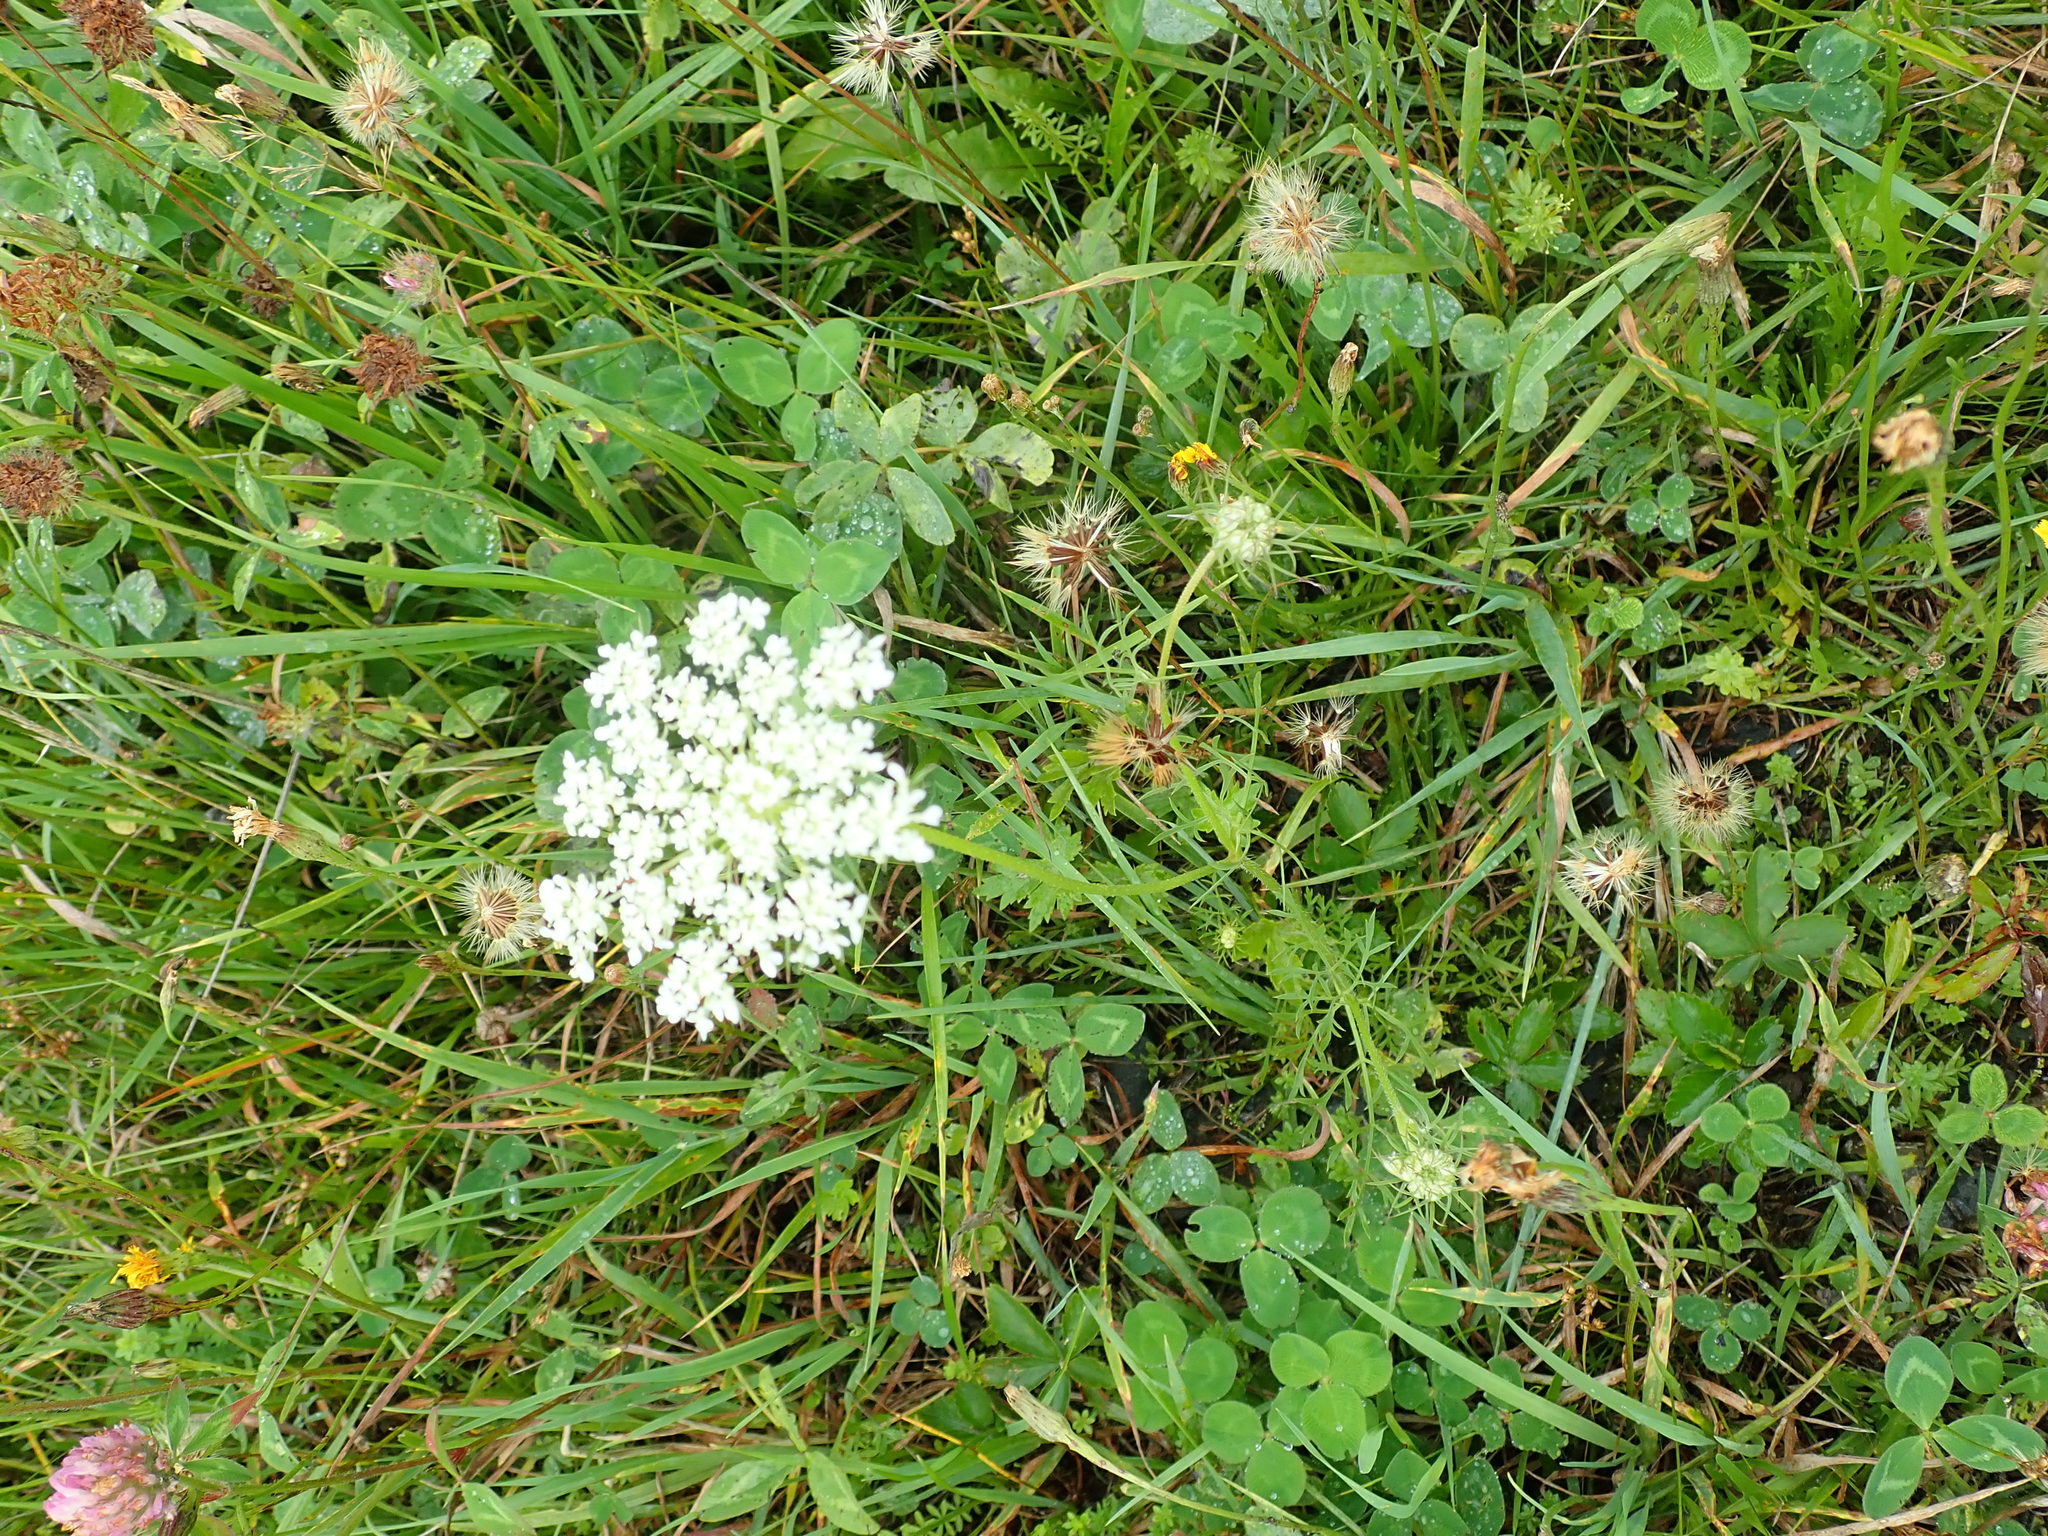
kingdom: Plantae
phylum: Tracheophyta
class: Magnoliopsida
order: Apiales
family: Apiaceae
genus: Daucus
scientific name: Daucus carota
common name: Wild carrot
